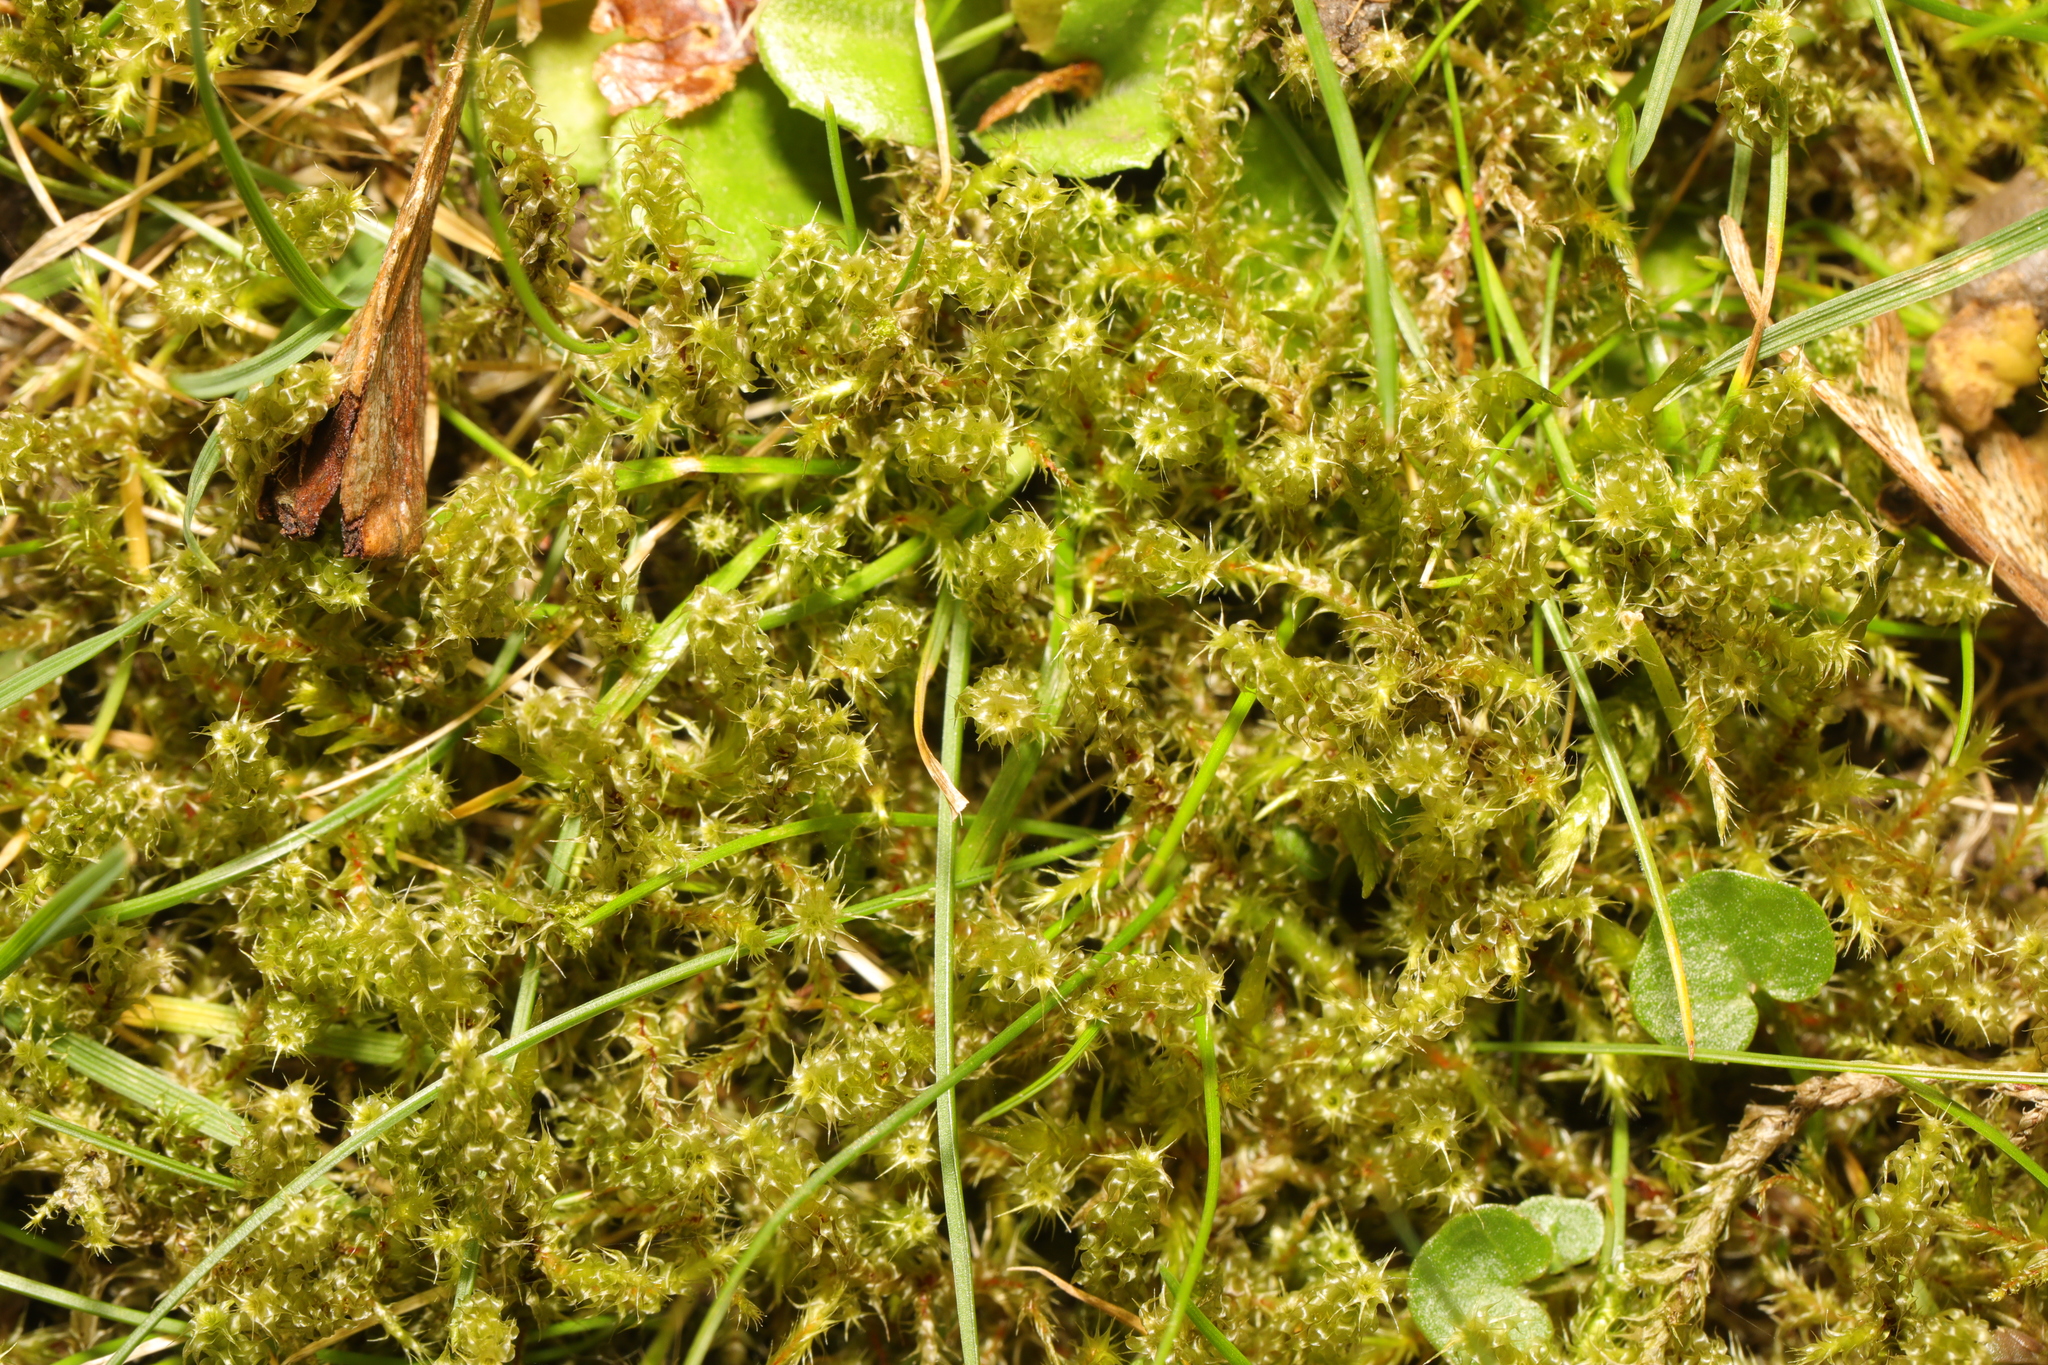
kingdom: Plantae
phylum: Bryophyta
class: Bryopsida
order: Hypnales
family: Hylocomiaceae
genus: Rhytidiadelphus
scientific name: Rhytidiadelphus squarrosus
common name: Springy turf-moss
